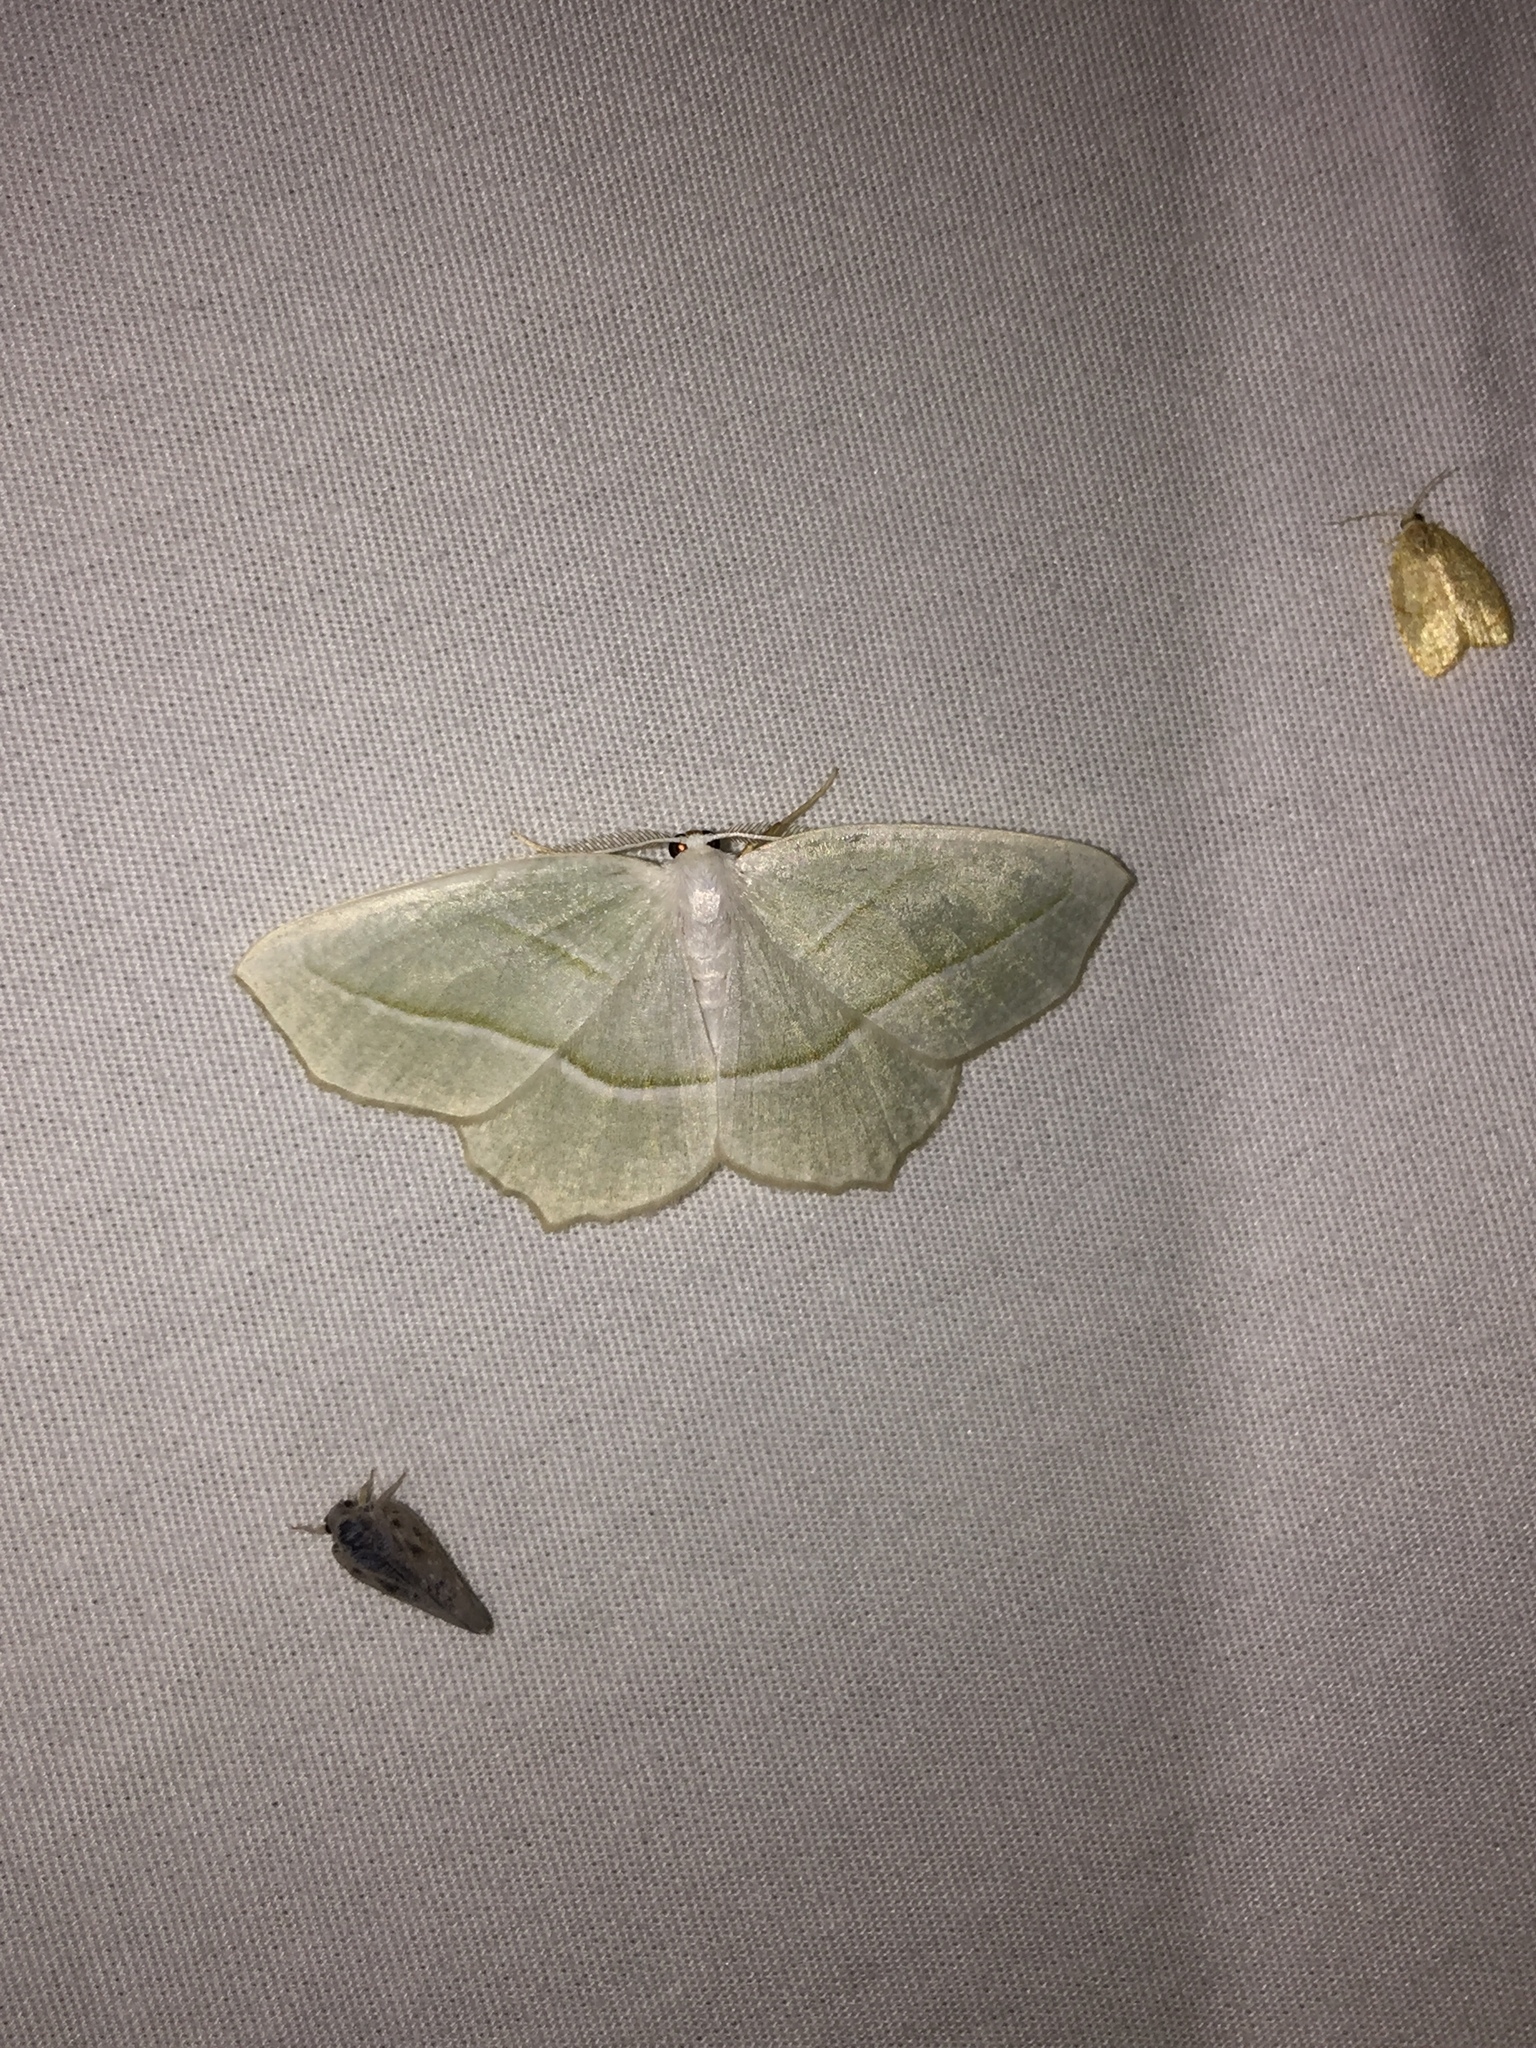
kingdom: Animalia
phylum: Arthropoda
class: Insecta
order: Lepidoptera
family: Geometridae
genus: Campaea
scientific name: Campaea perlata
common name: Fringed looper
